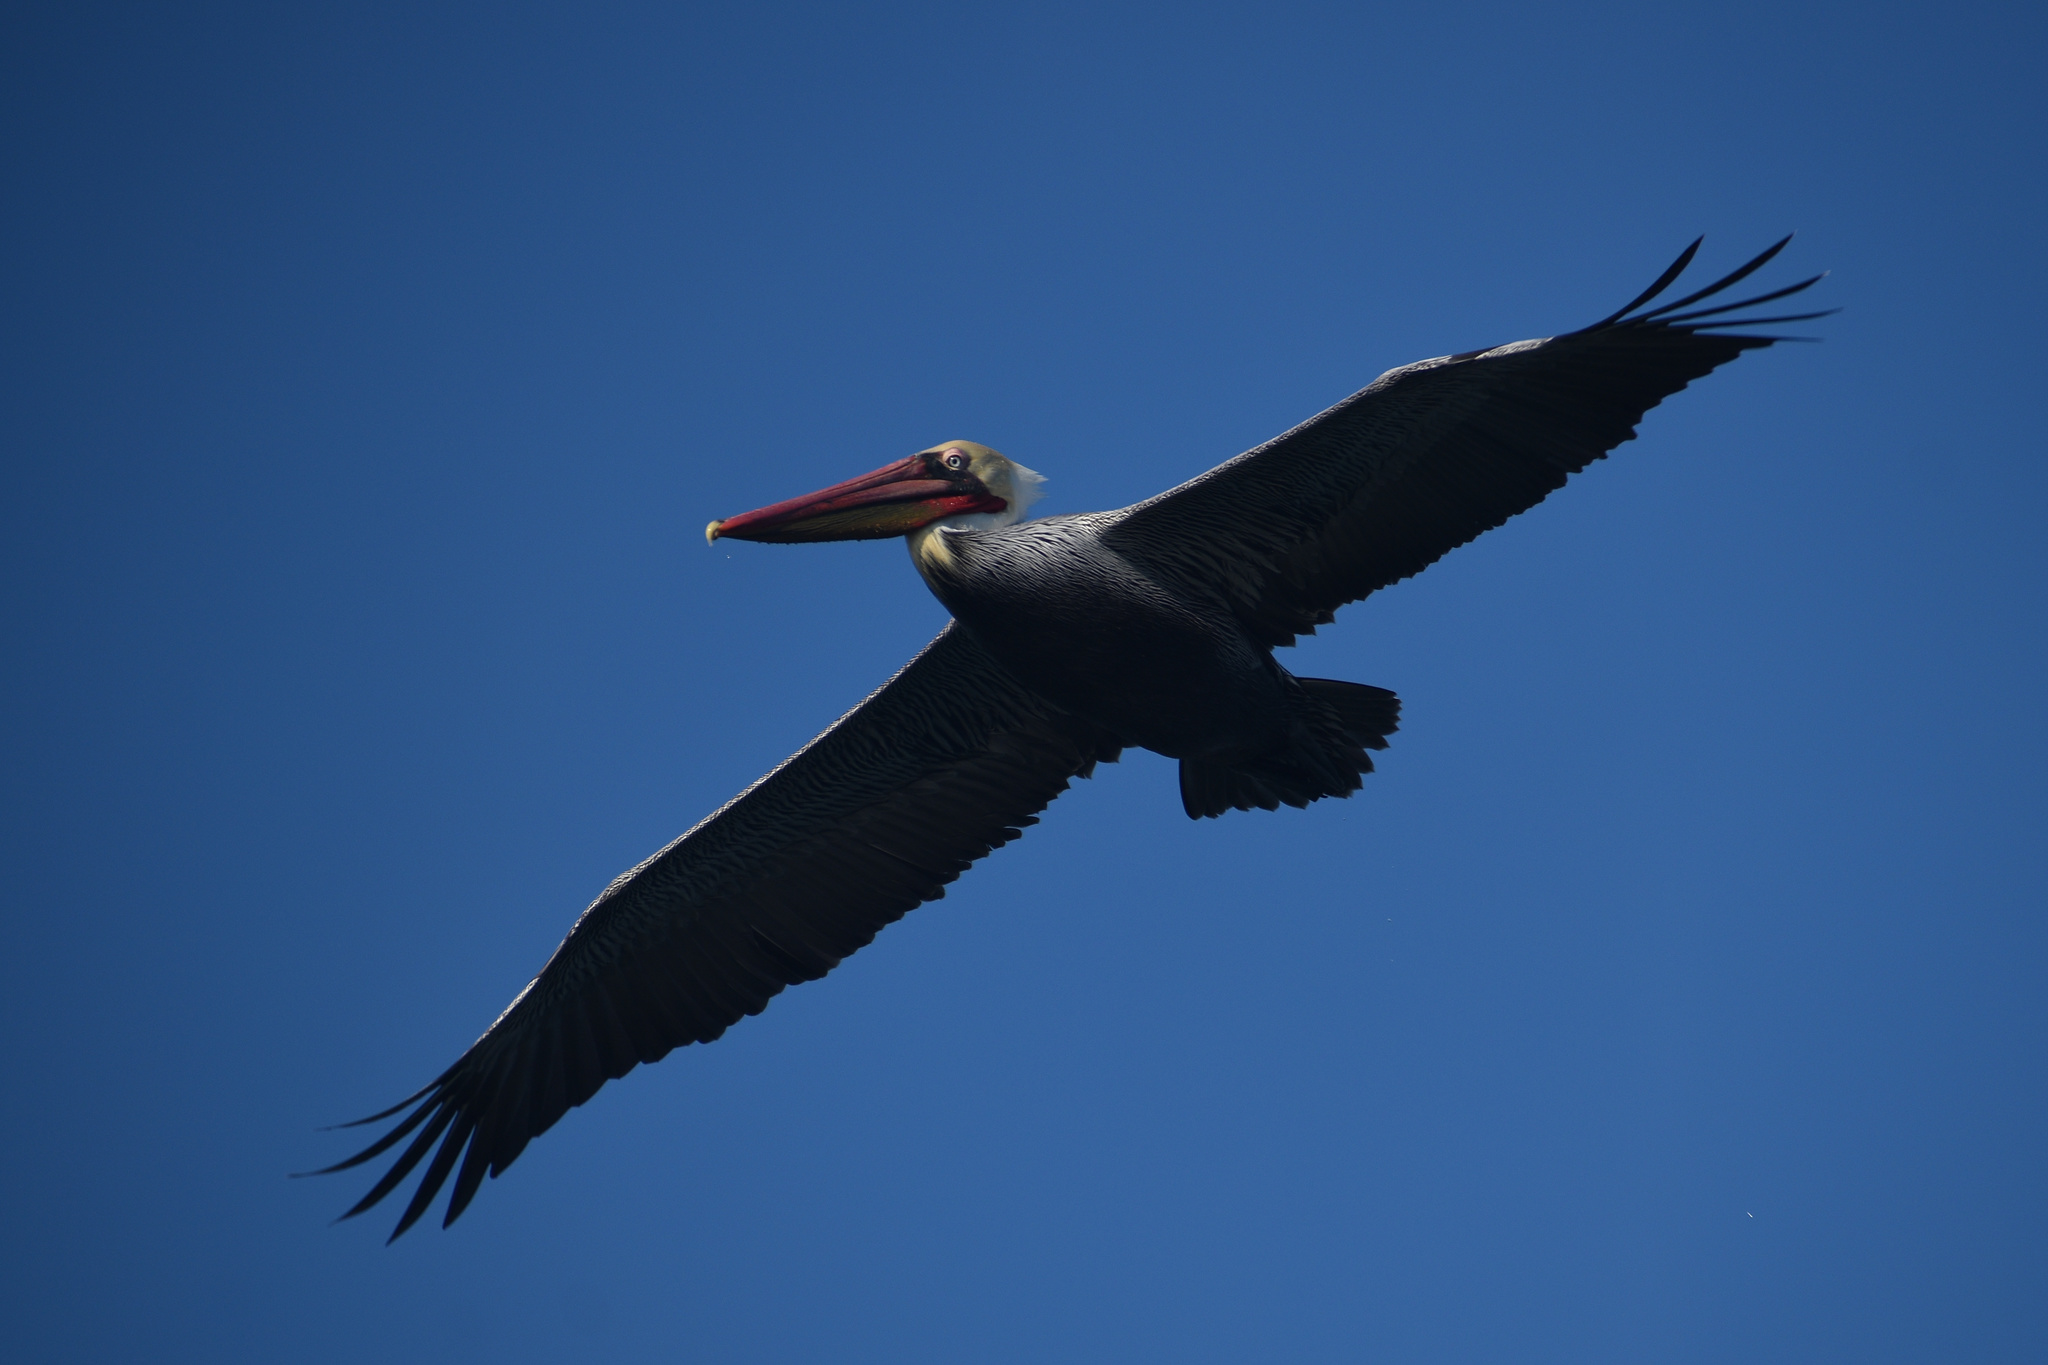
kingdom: Animalia
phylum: Chordata
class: Aves
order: Pelecaniformes
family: Pelecanidae
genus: Pelecanus
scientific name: Pelecanus occidentalis
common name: Brown pelican
